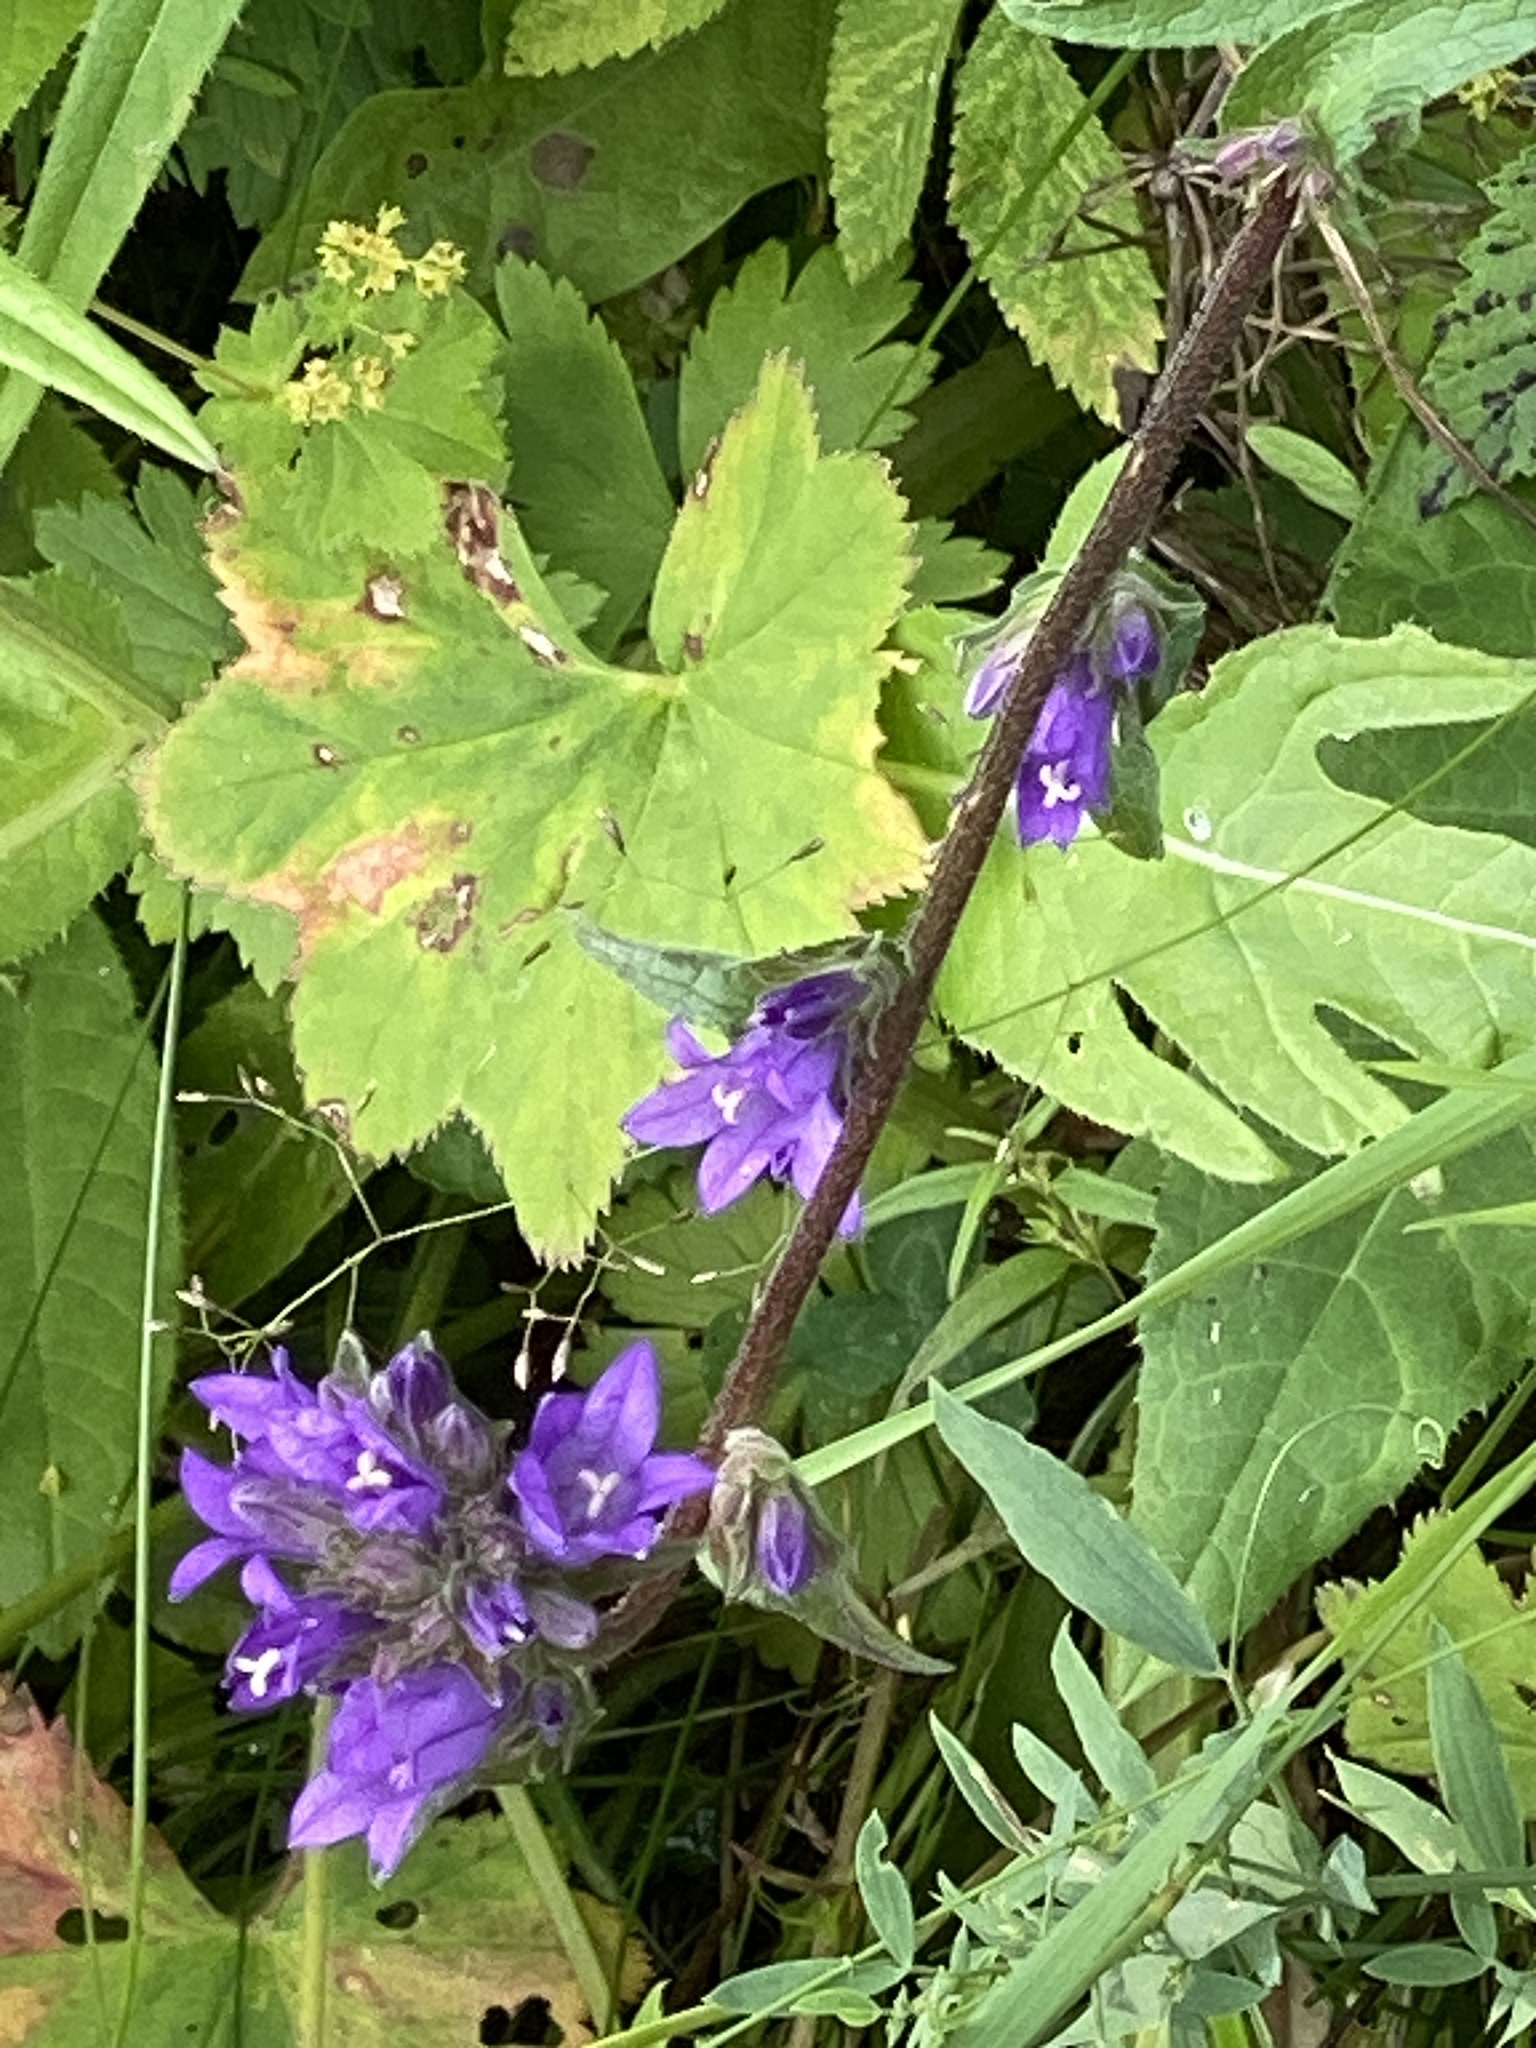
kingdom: Plantae
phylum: Tracheophyta
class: Magnoliopsida
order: Asterales
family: Campanulaceae
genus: Campanula
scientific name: Campanula glomerata
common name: Clustered bellflower
